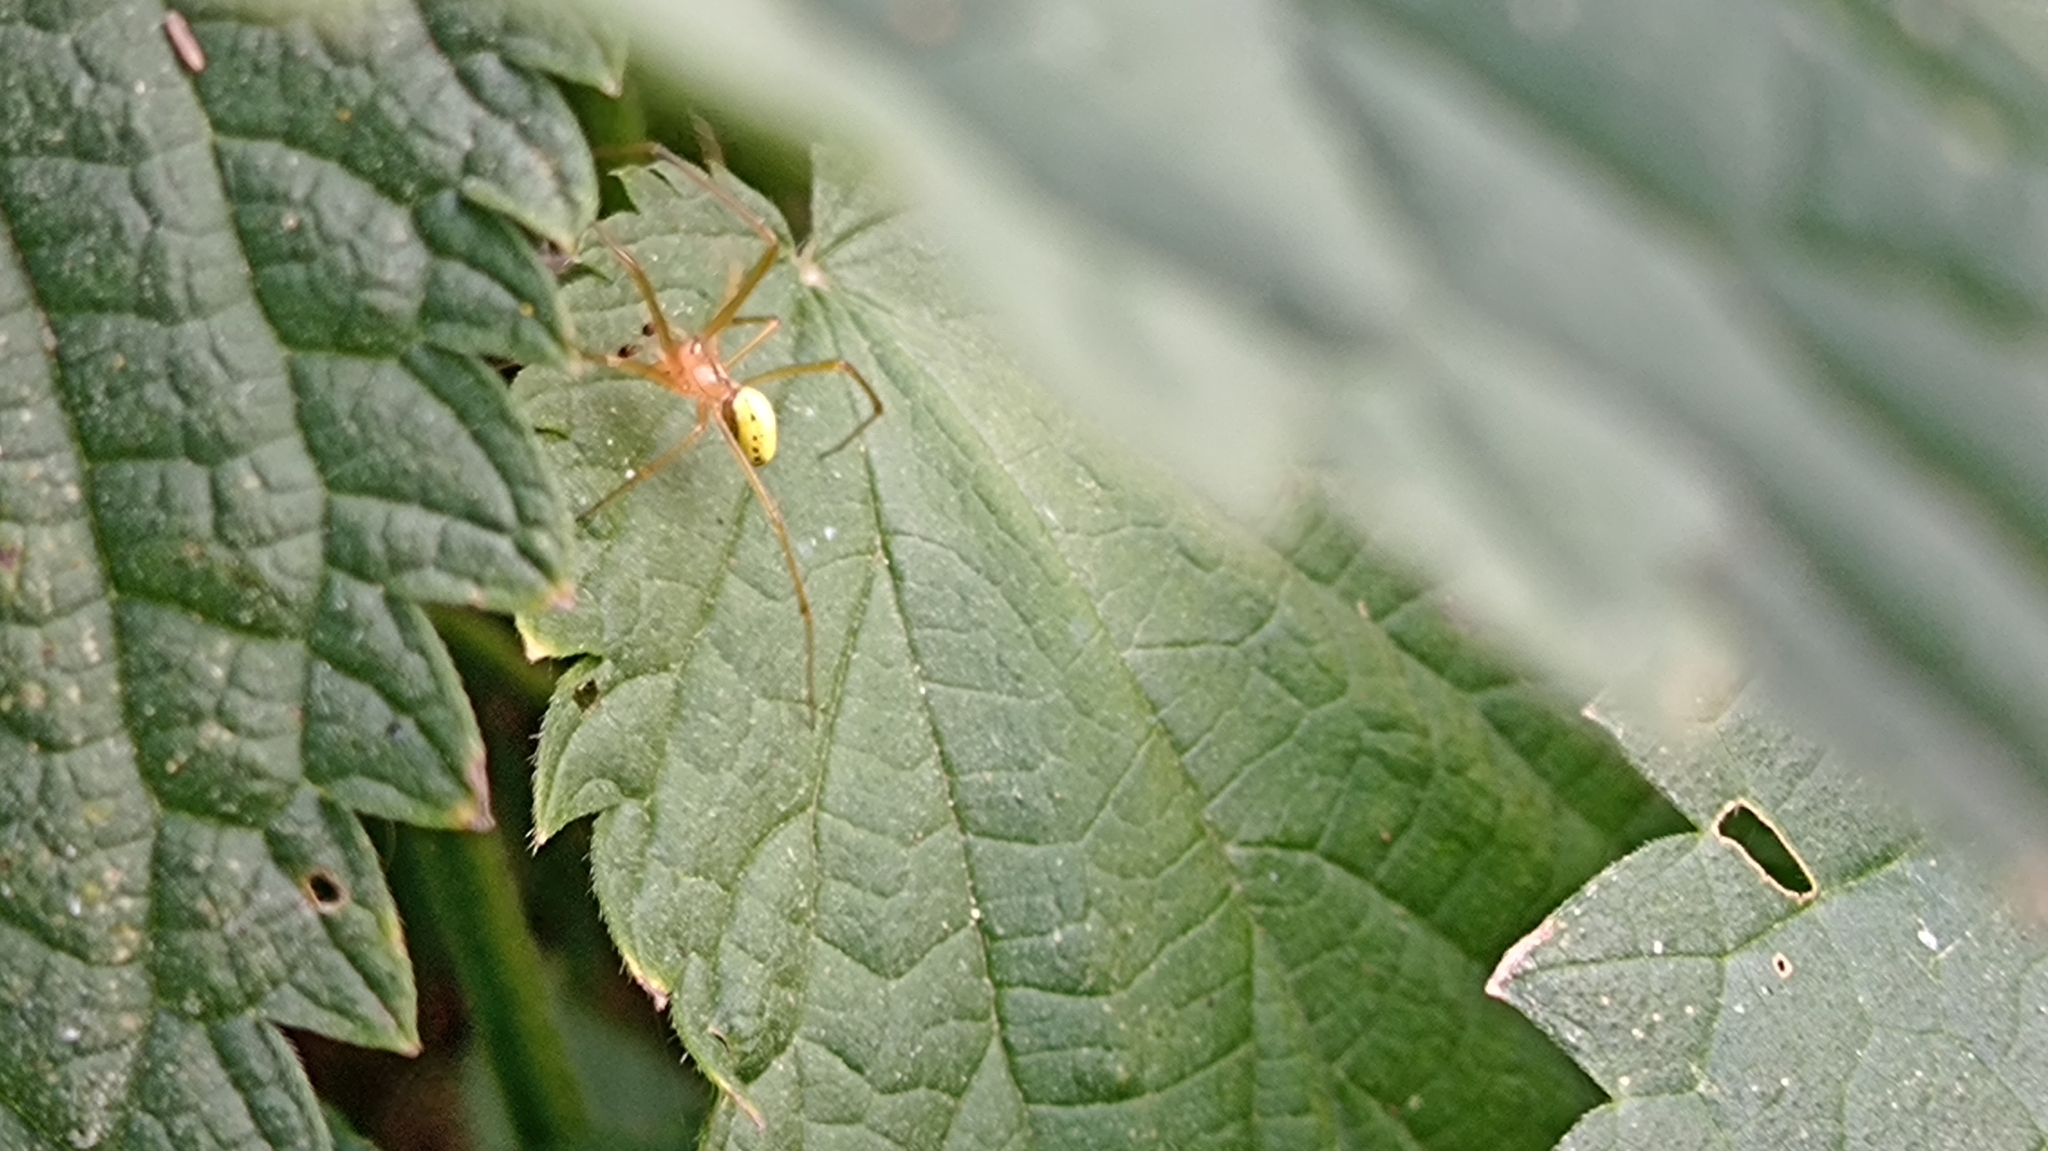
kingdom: Animalia
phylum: Arthropoda
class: Arachnida
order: Araneae
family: Theridiidae
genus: Enoplognatha
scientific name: Enoplognatha ovata
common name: Common candy-striped spider
